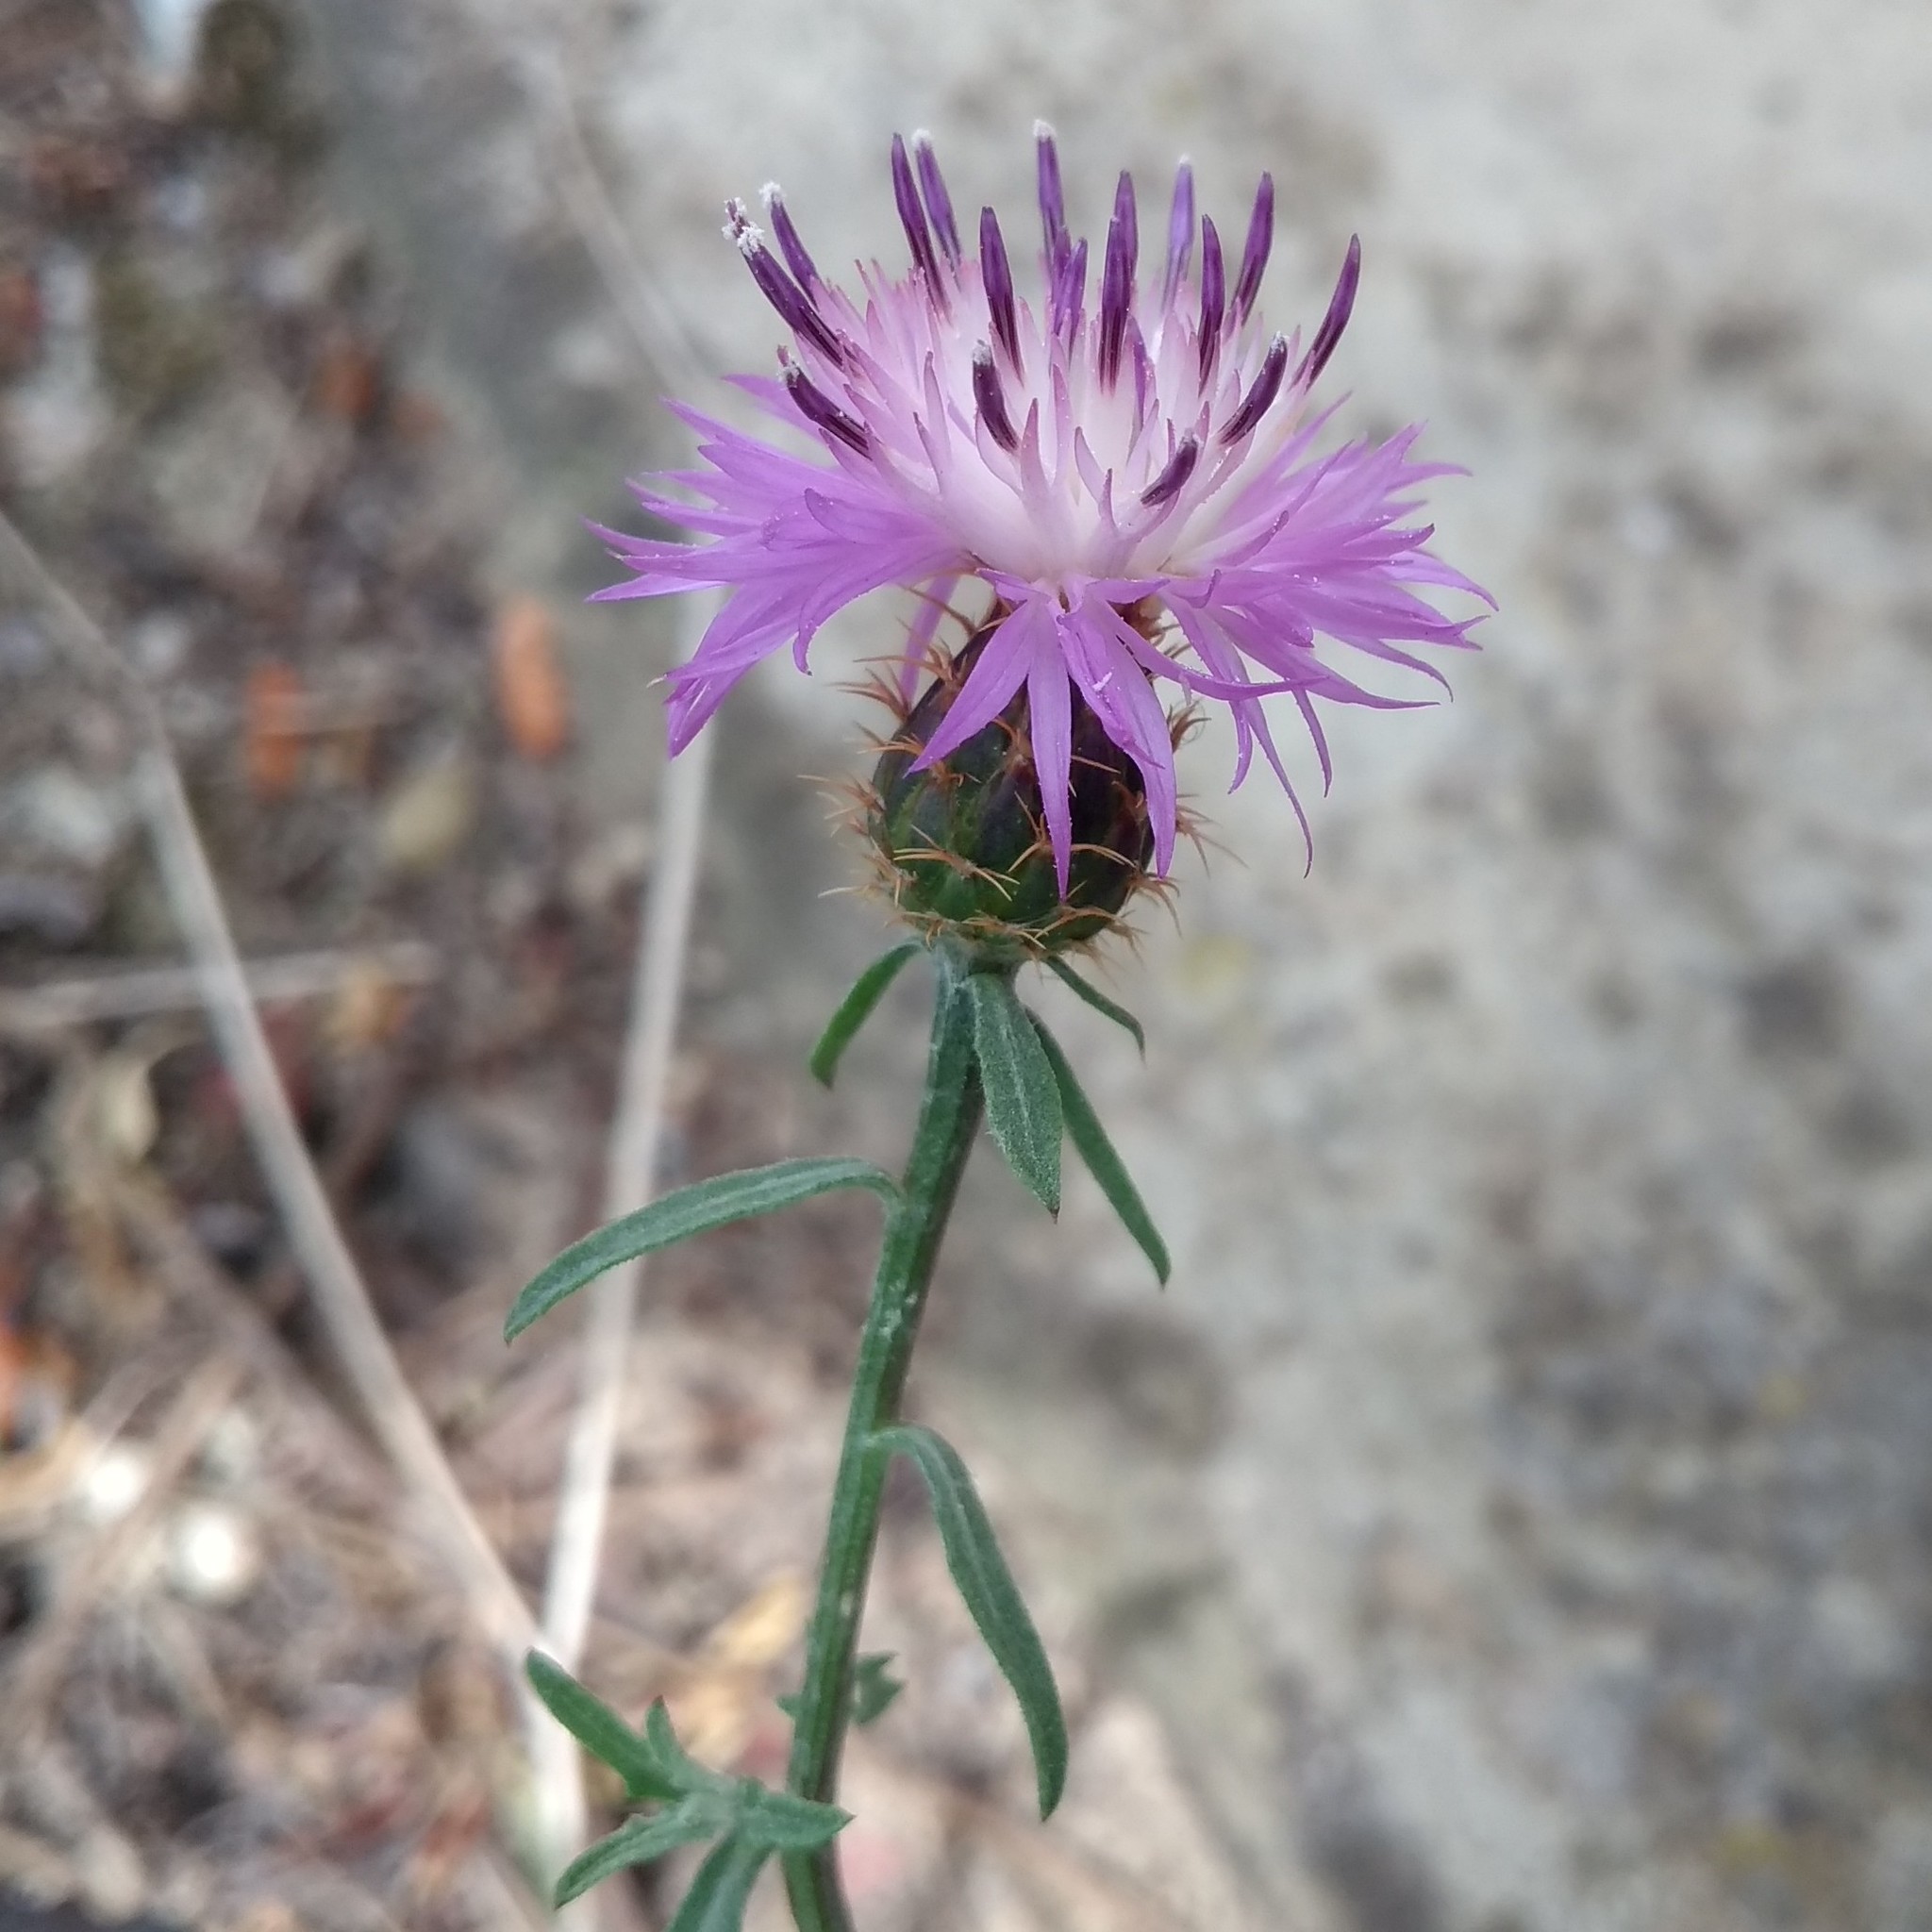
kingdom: Plantae
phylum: Tracheophyta
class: Magnoliopsida
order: Asterales
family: Asteraceae
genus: Centaurea
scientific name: Centaurea aspera
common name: Rough star-thistle
